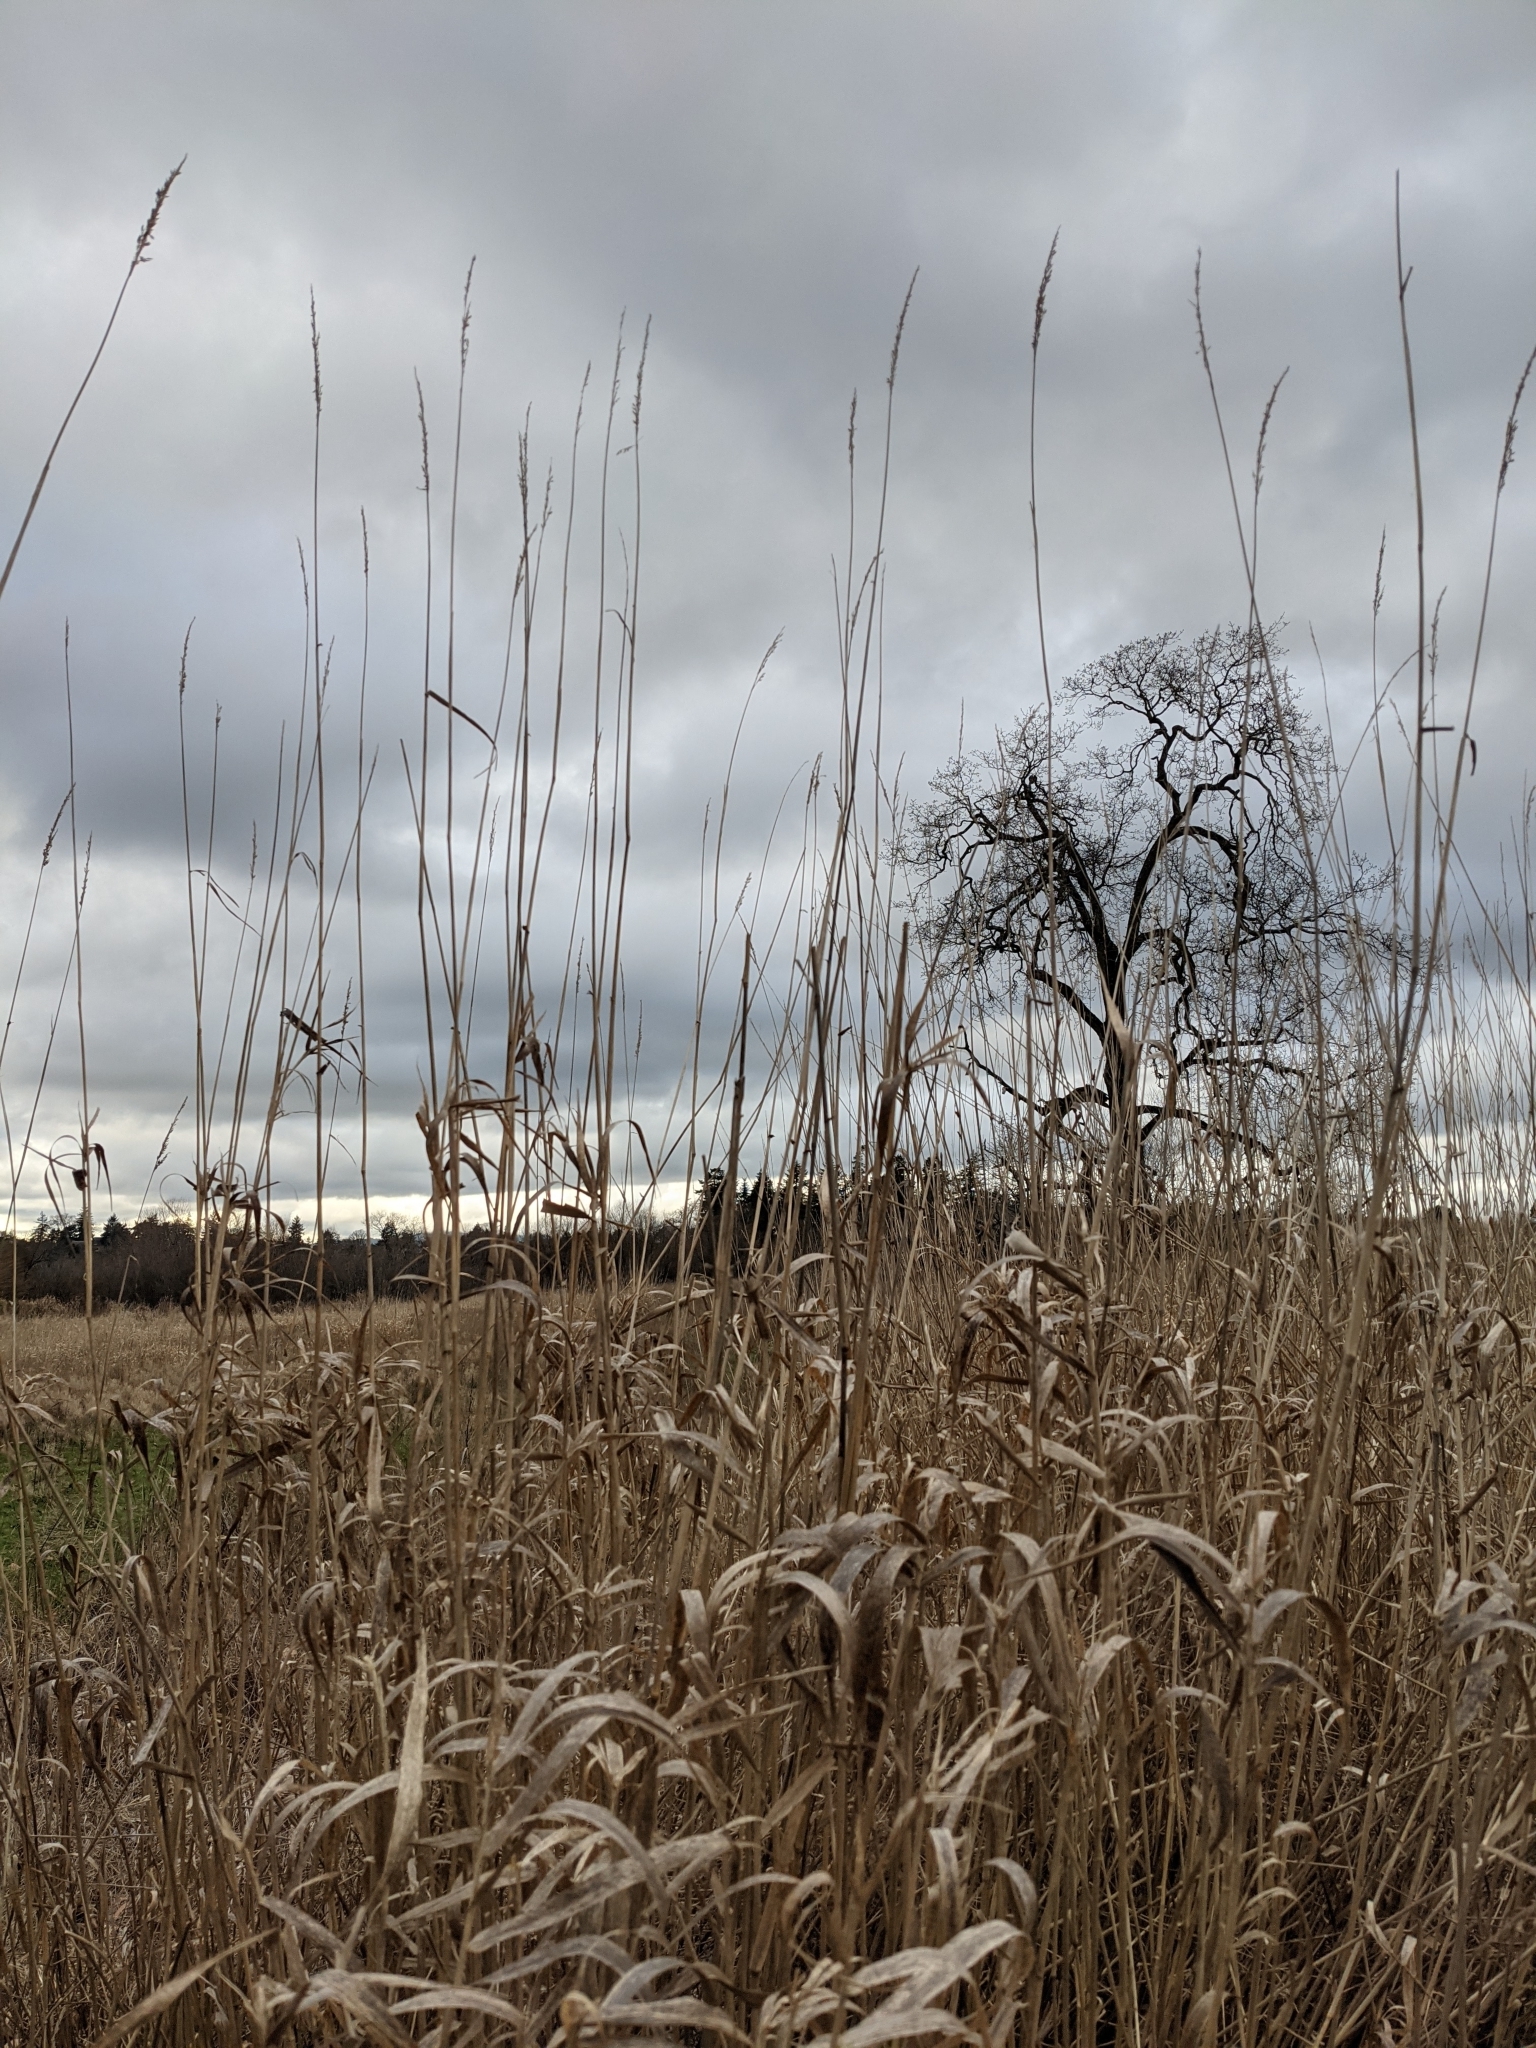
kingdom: Plantae
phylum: Tracheophyta
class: Liliopsida
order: Poales
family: Poaceae
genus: Phalaris
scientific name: Phalaris arundinacea
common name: Reed canary-grass
